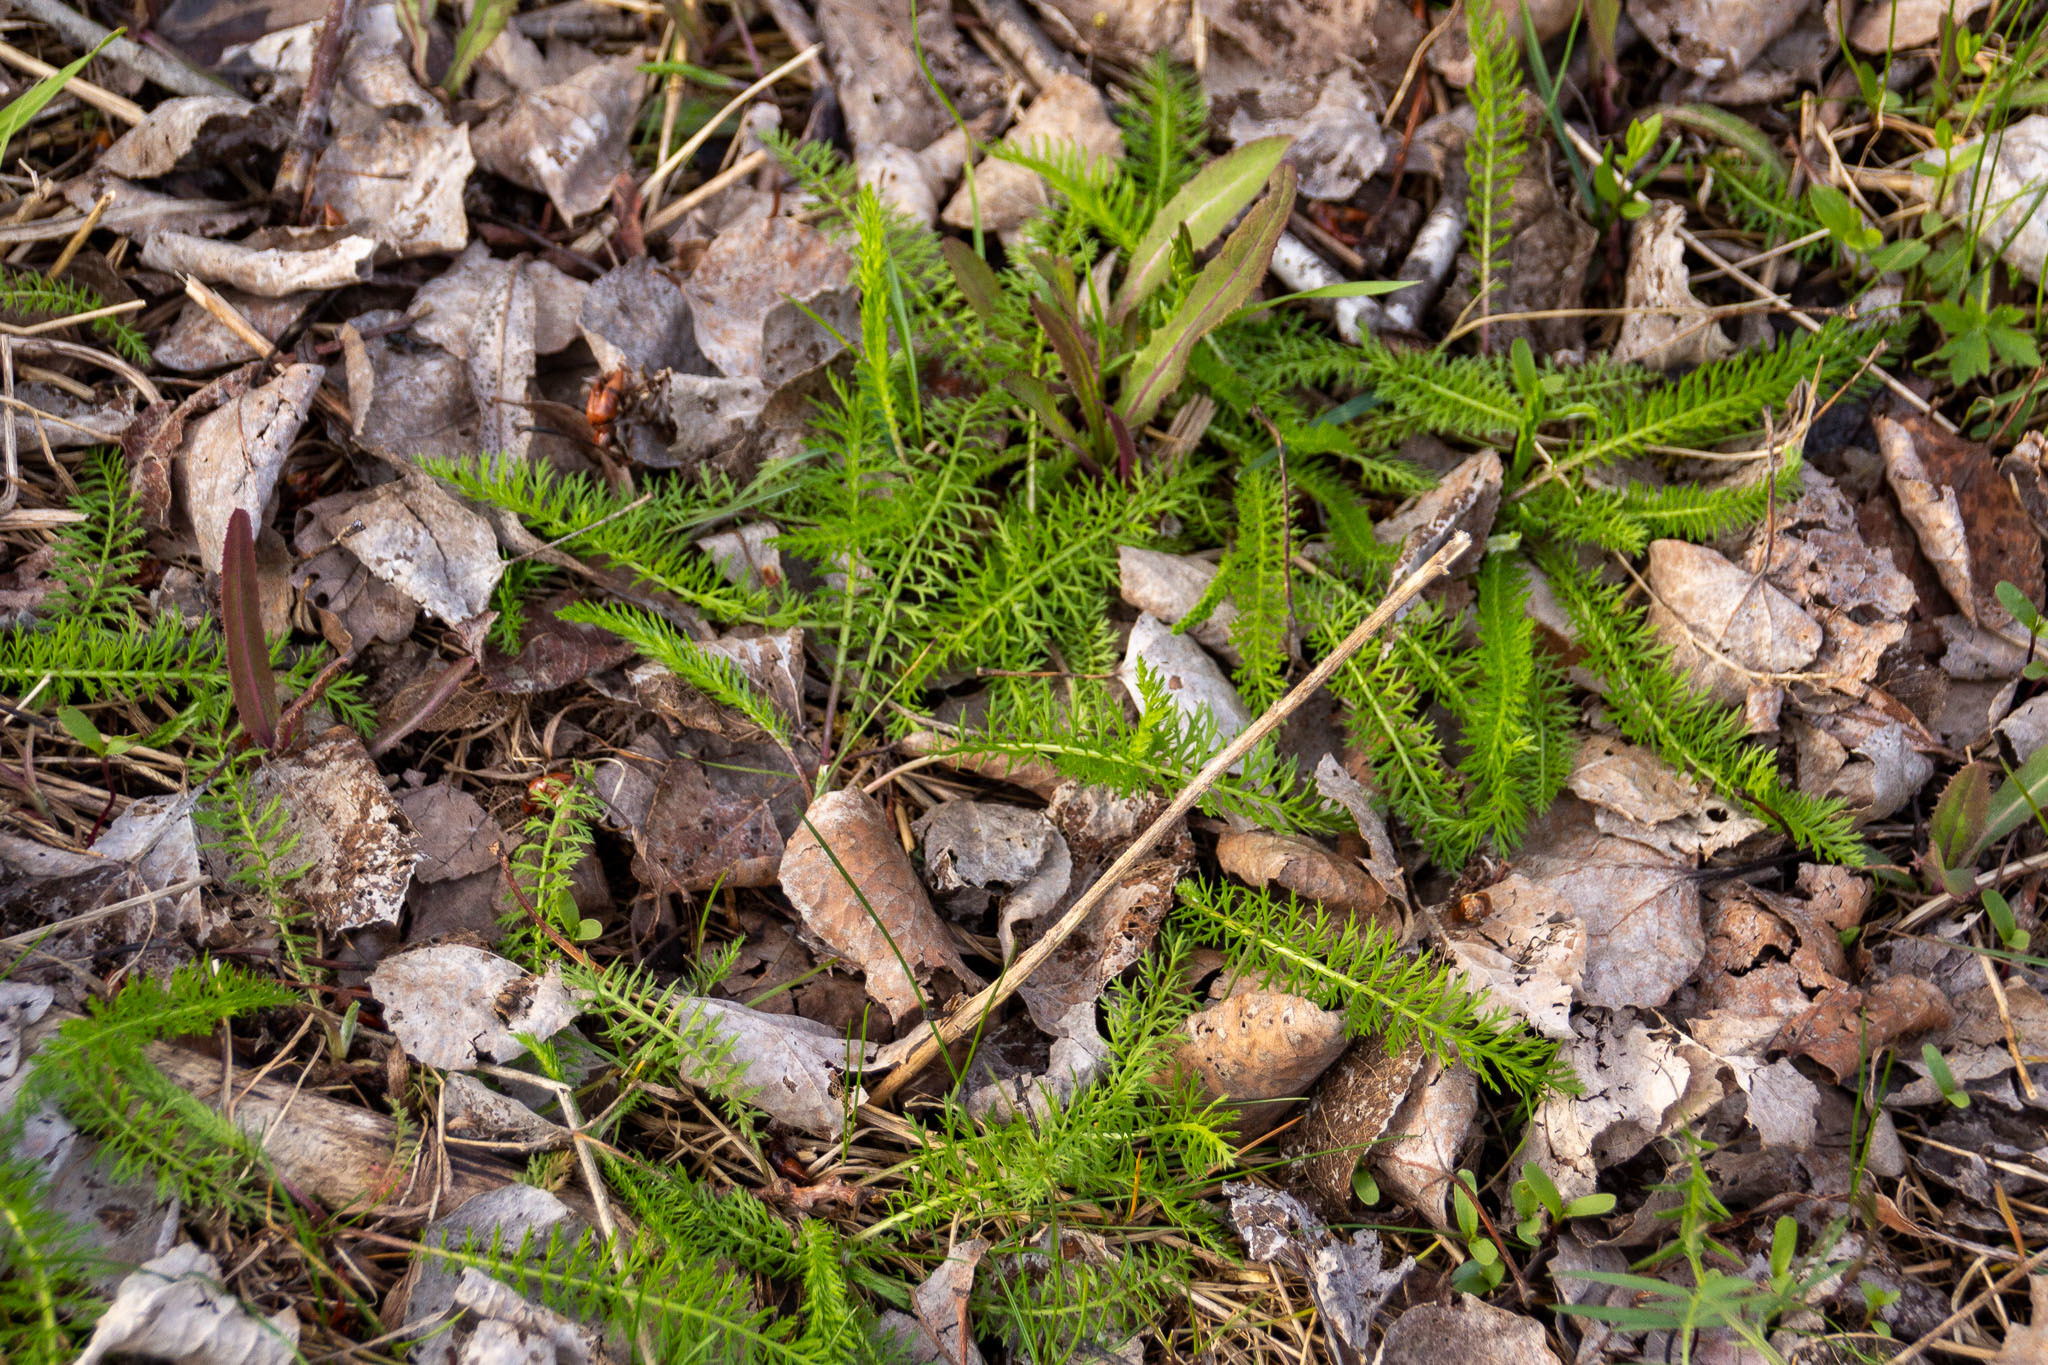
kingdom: Plantae
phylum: Tracheophyta
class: Magnoliopsida
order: Asterales
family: Asteraceae
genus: Achillea
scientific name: Achillea millefolium
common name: Yarrow
